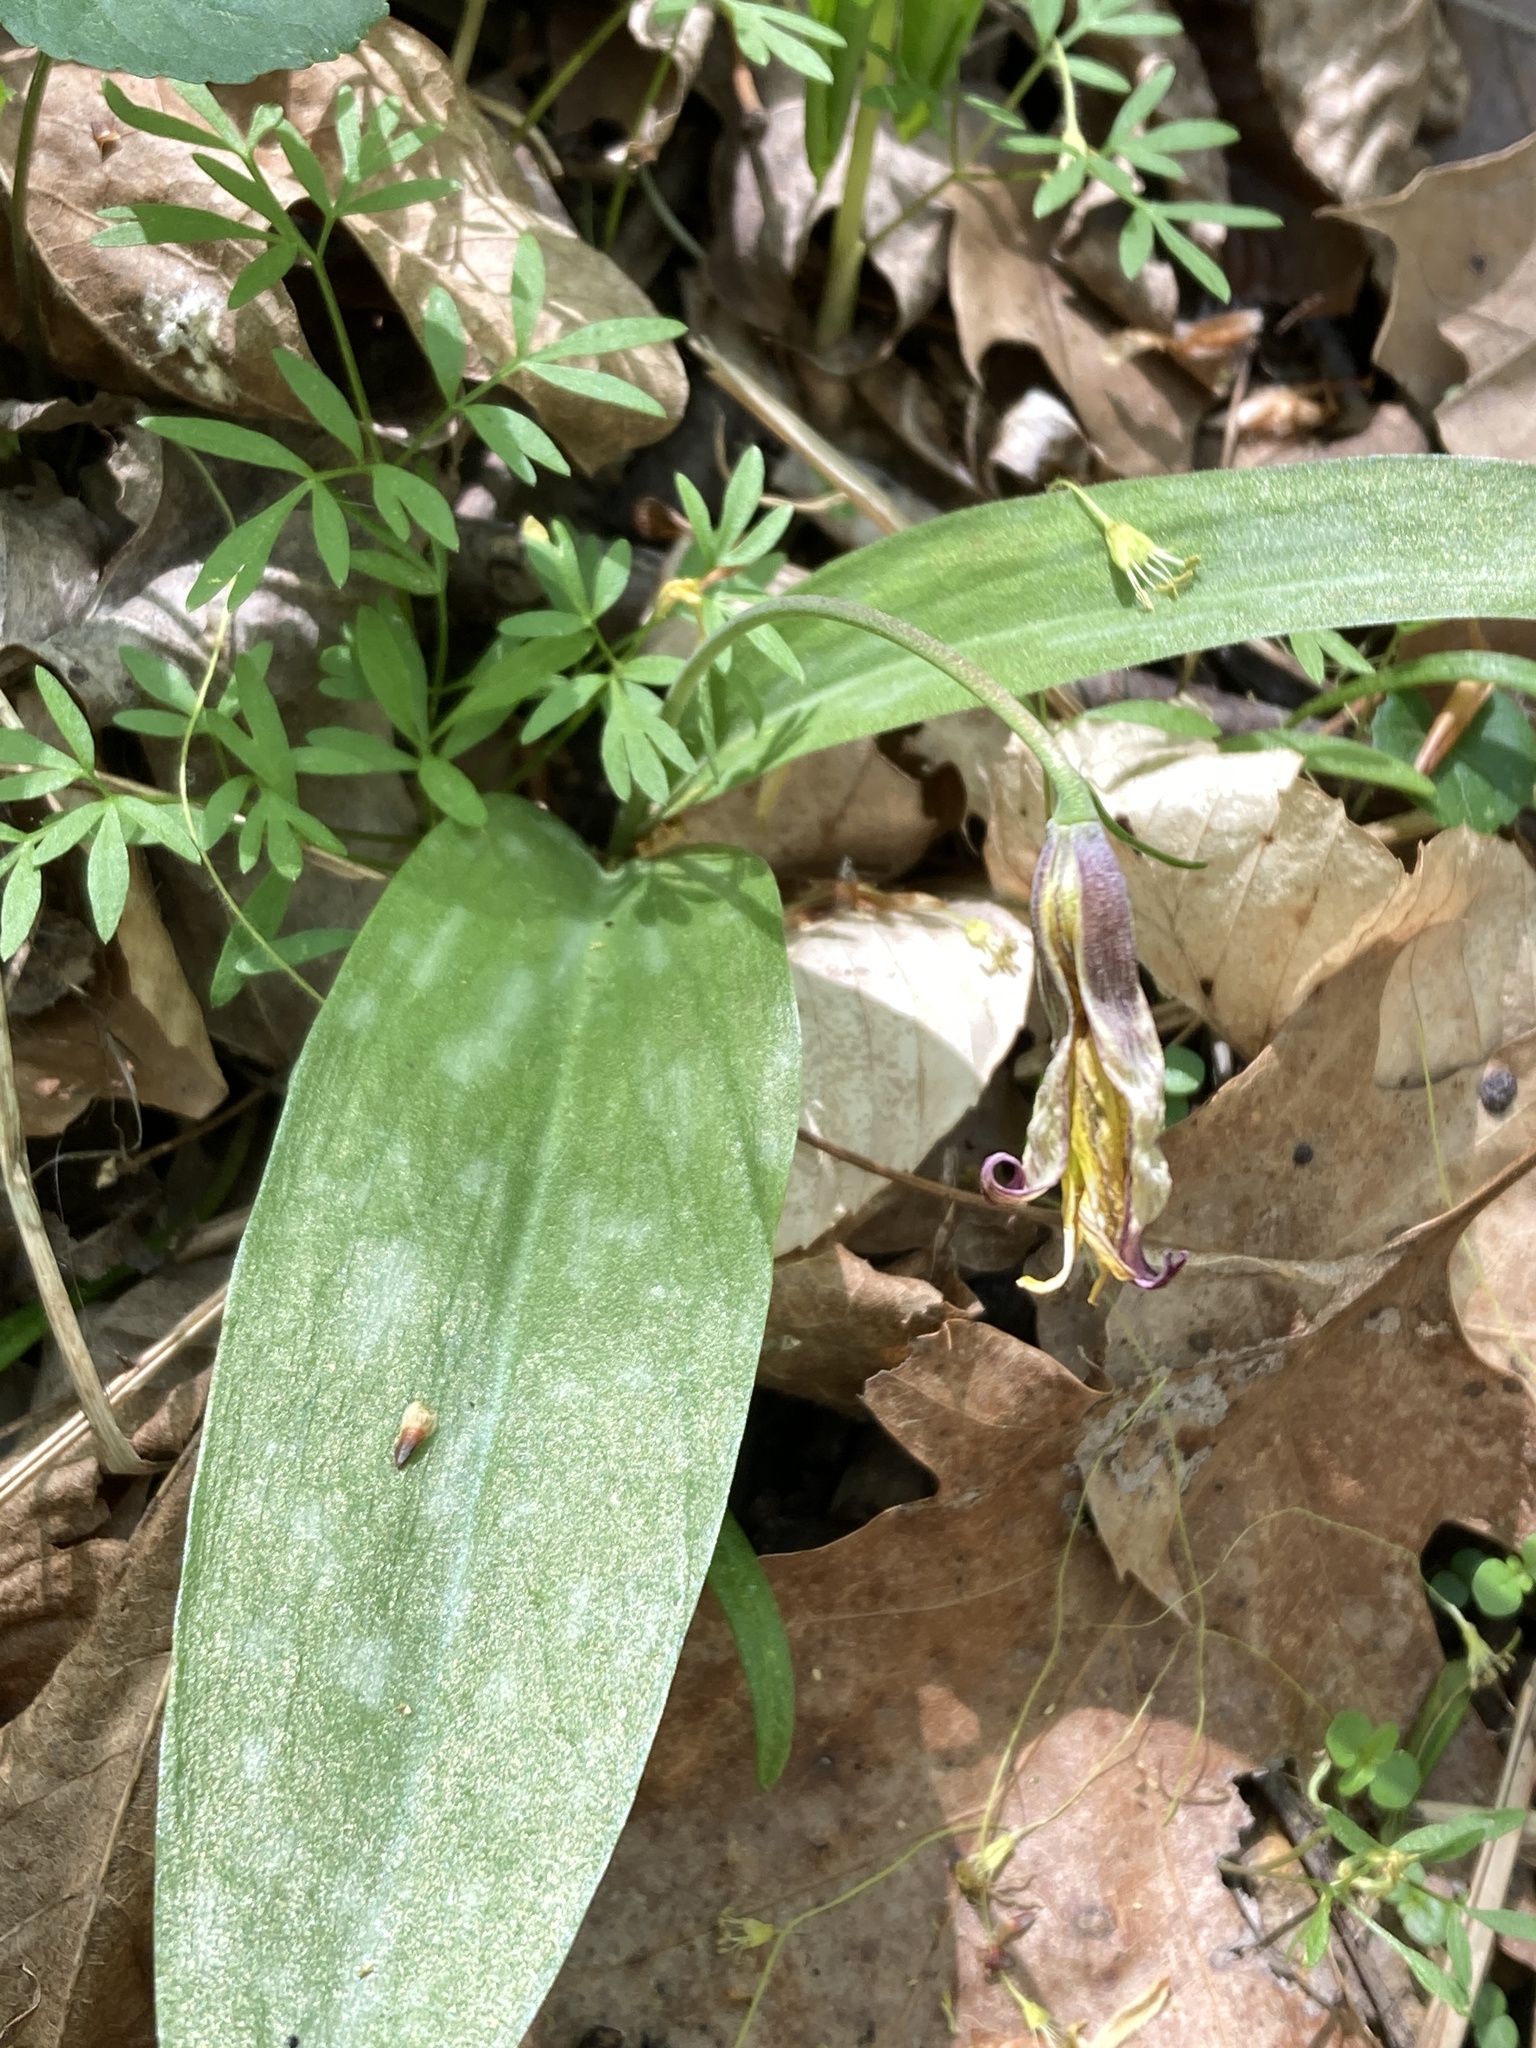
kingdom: Plantae
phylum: Tracheophyta
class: Liliopsida
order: Liliales
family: Liliaceae
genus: Erythronium
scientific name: Erythronium americanum
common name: Yellow adder's-tongue
